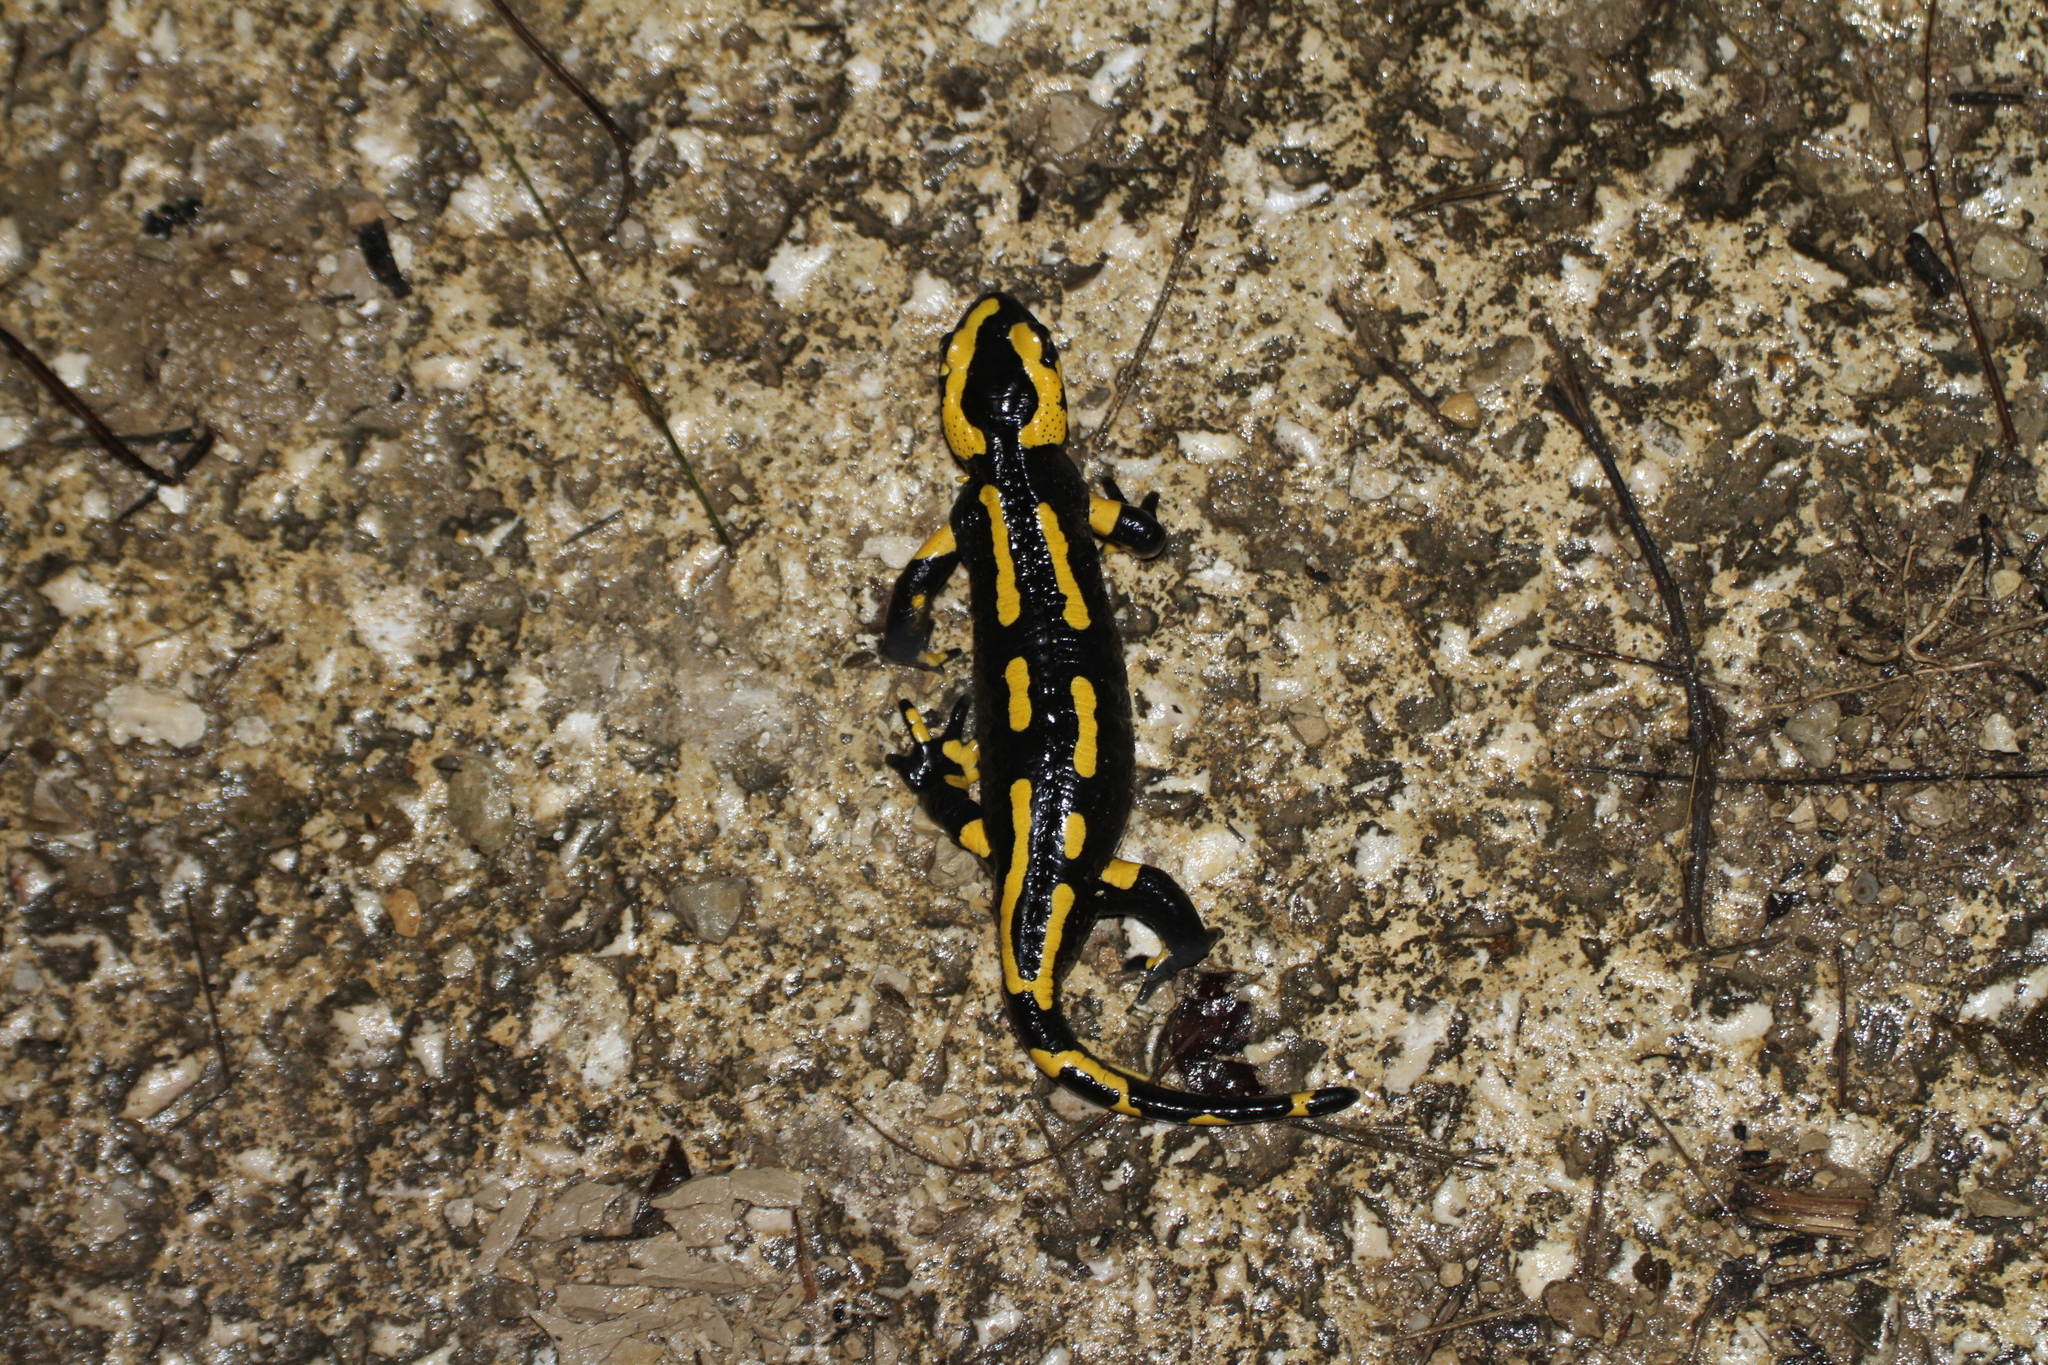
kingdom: Animalia
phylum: Chordata
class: Amphibia
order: Caudata
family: Salamandridae
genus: Salamandra
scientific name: Salamandra salamandra
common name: Fire salamander
